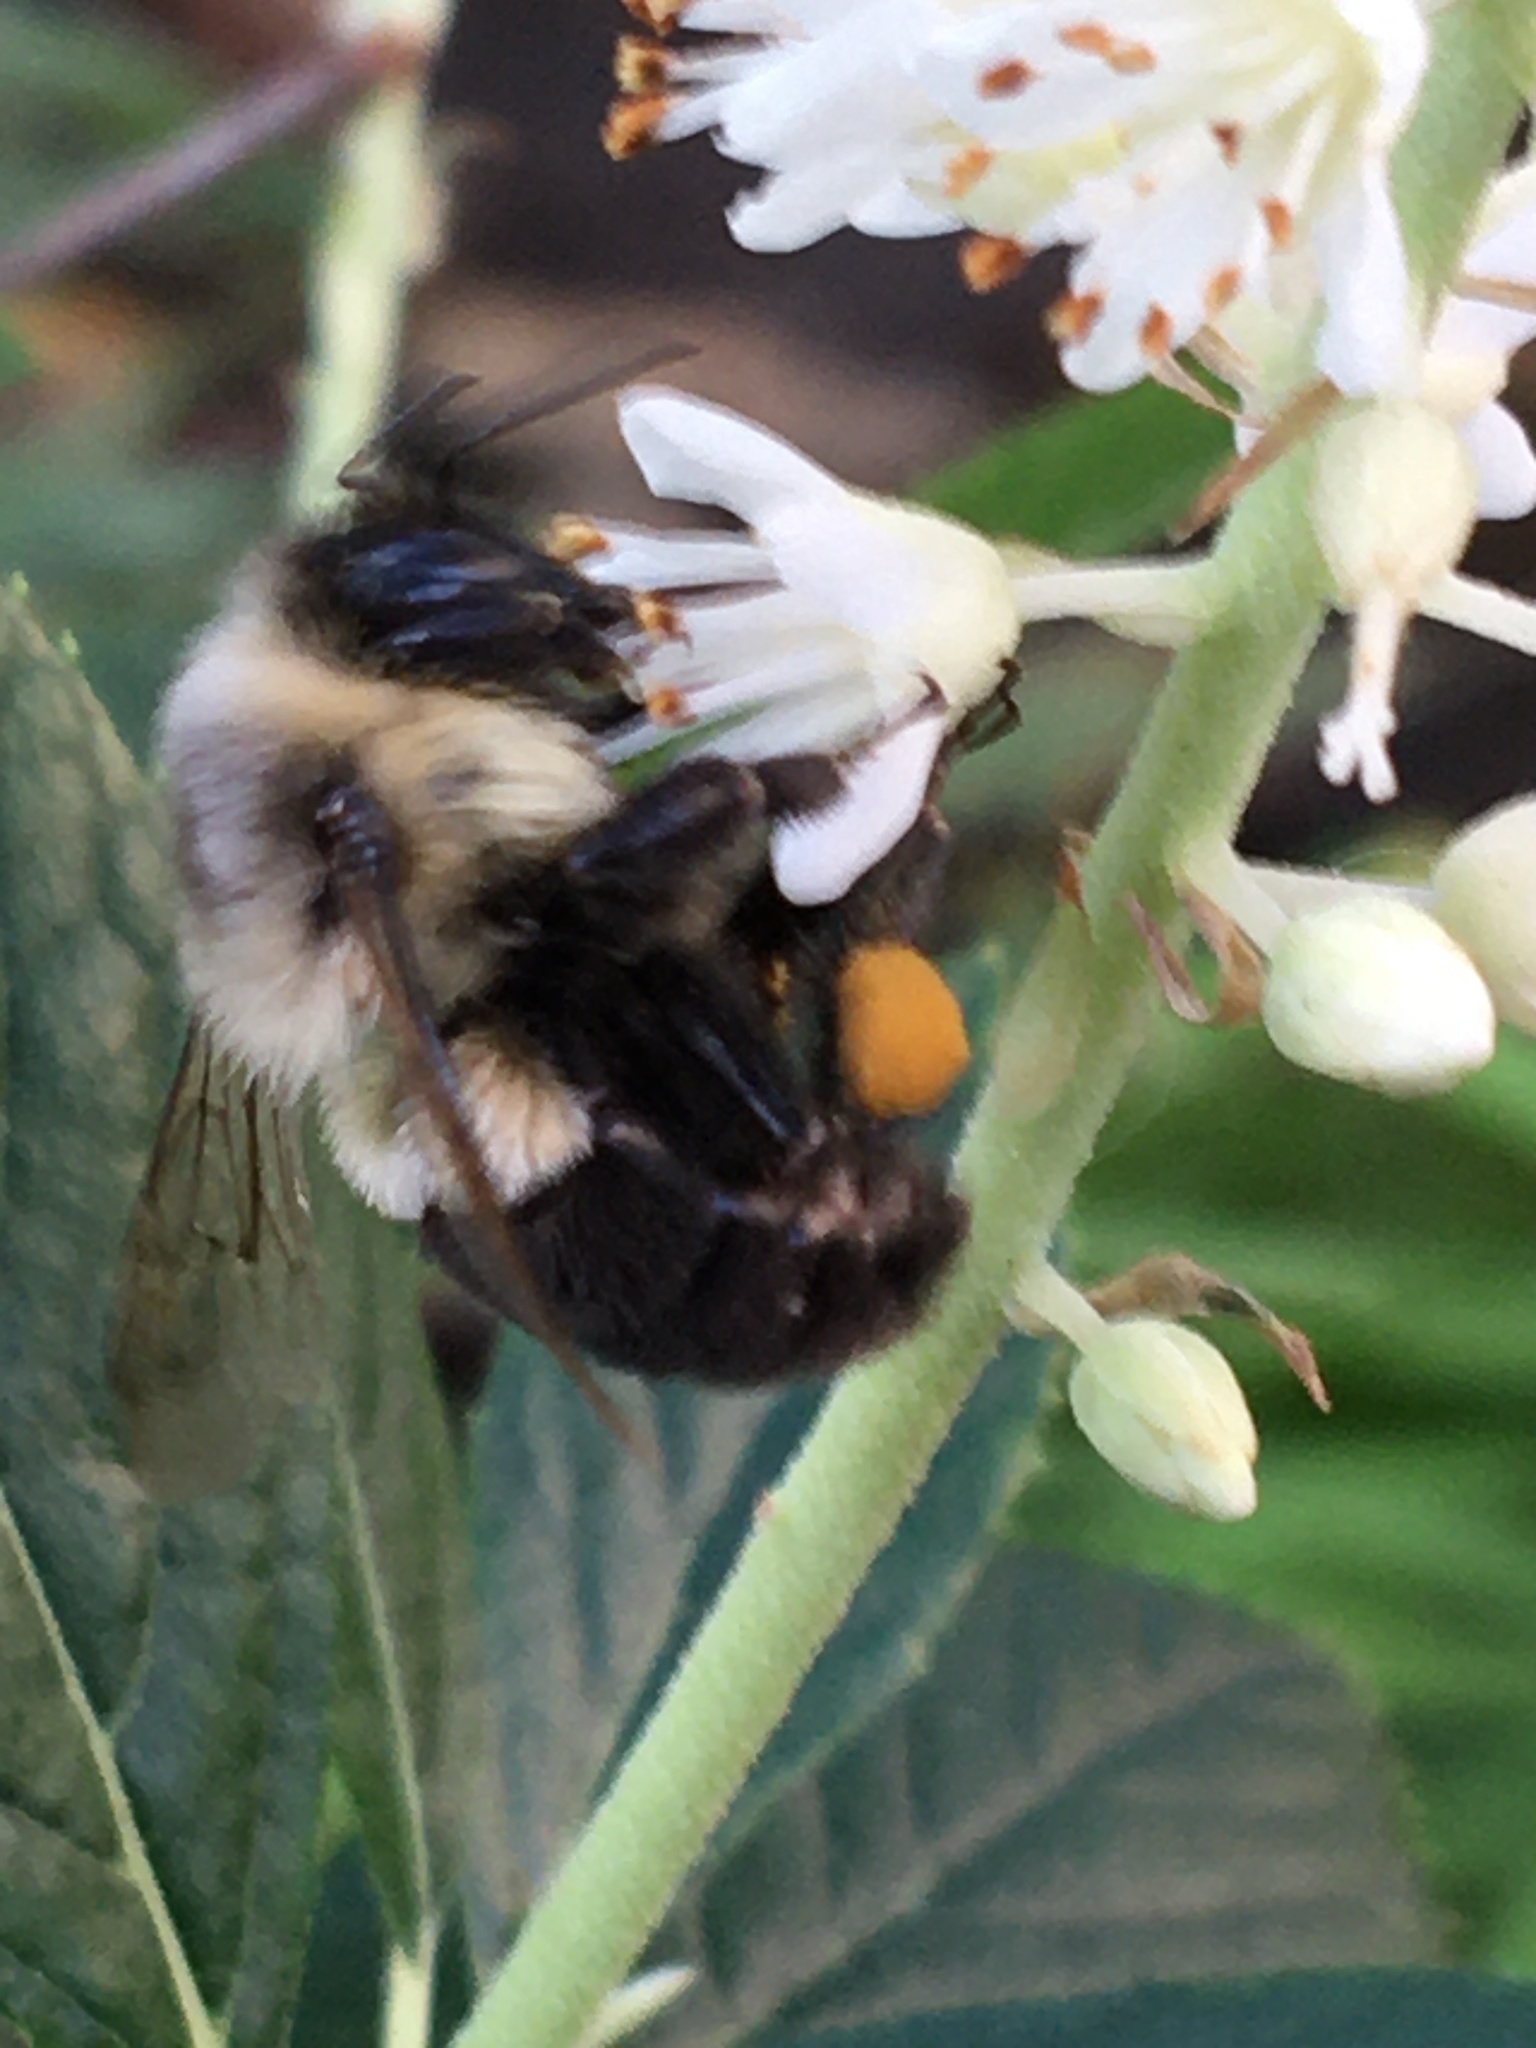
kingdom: Animalia
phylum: Arthropoda
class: Insecta
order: Hymenoptera
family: Apidae
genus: Bombus
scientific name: Bombus impatiens
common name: Common eastern bumble bee
